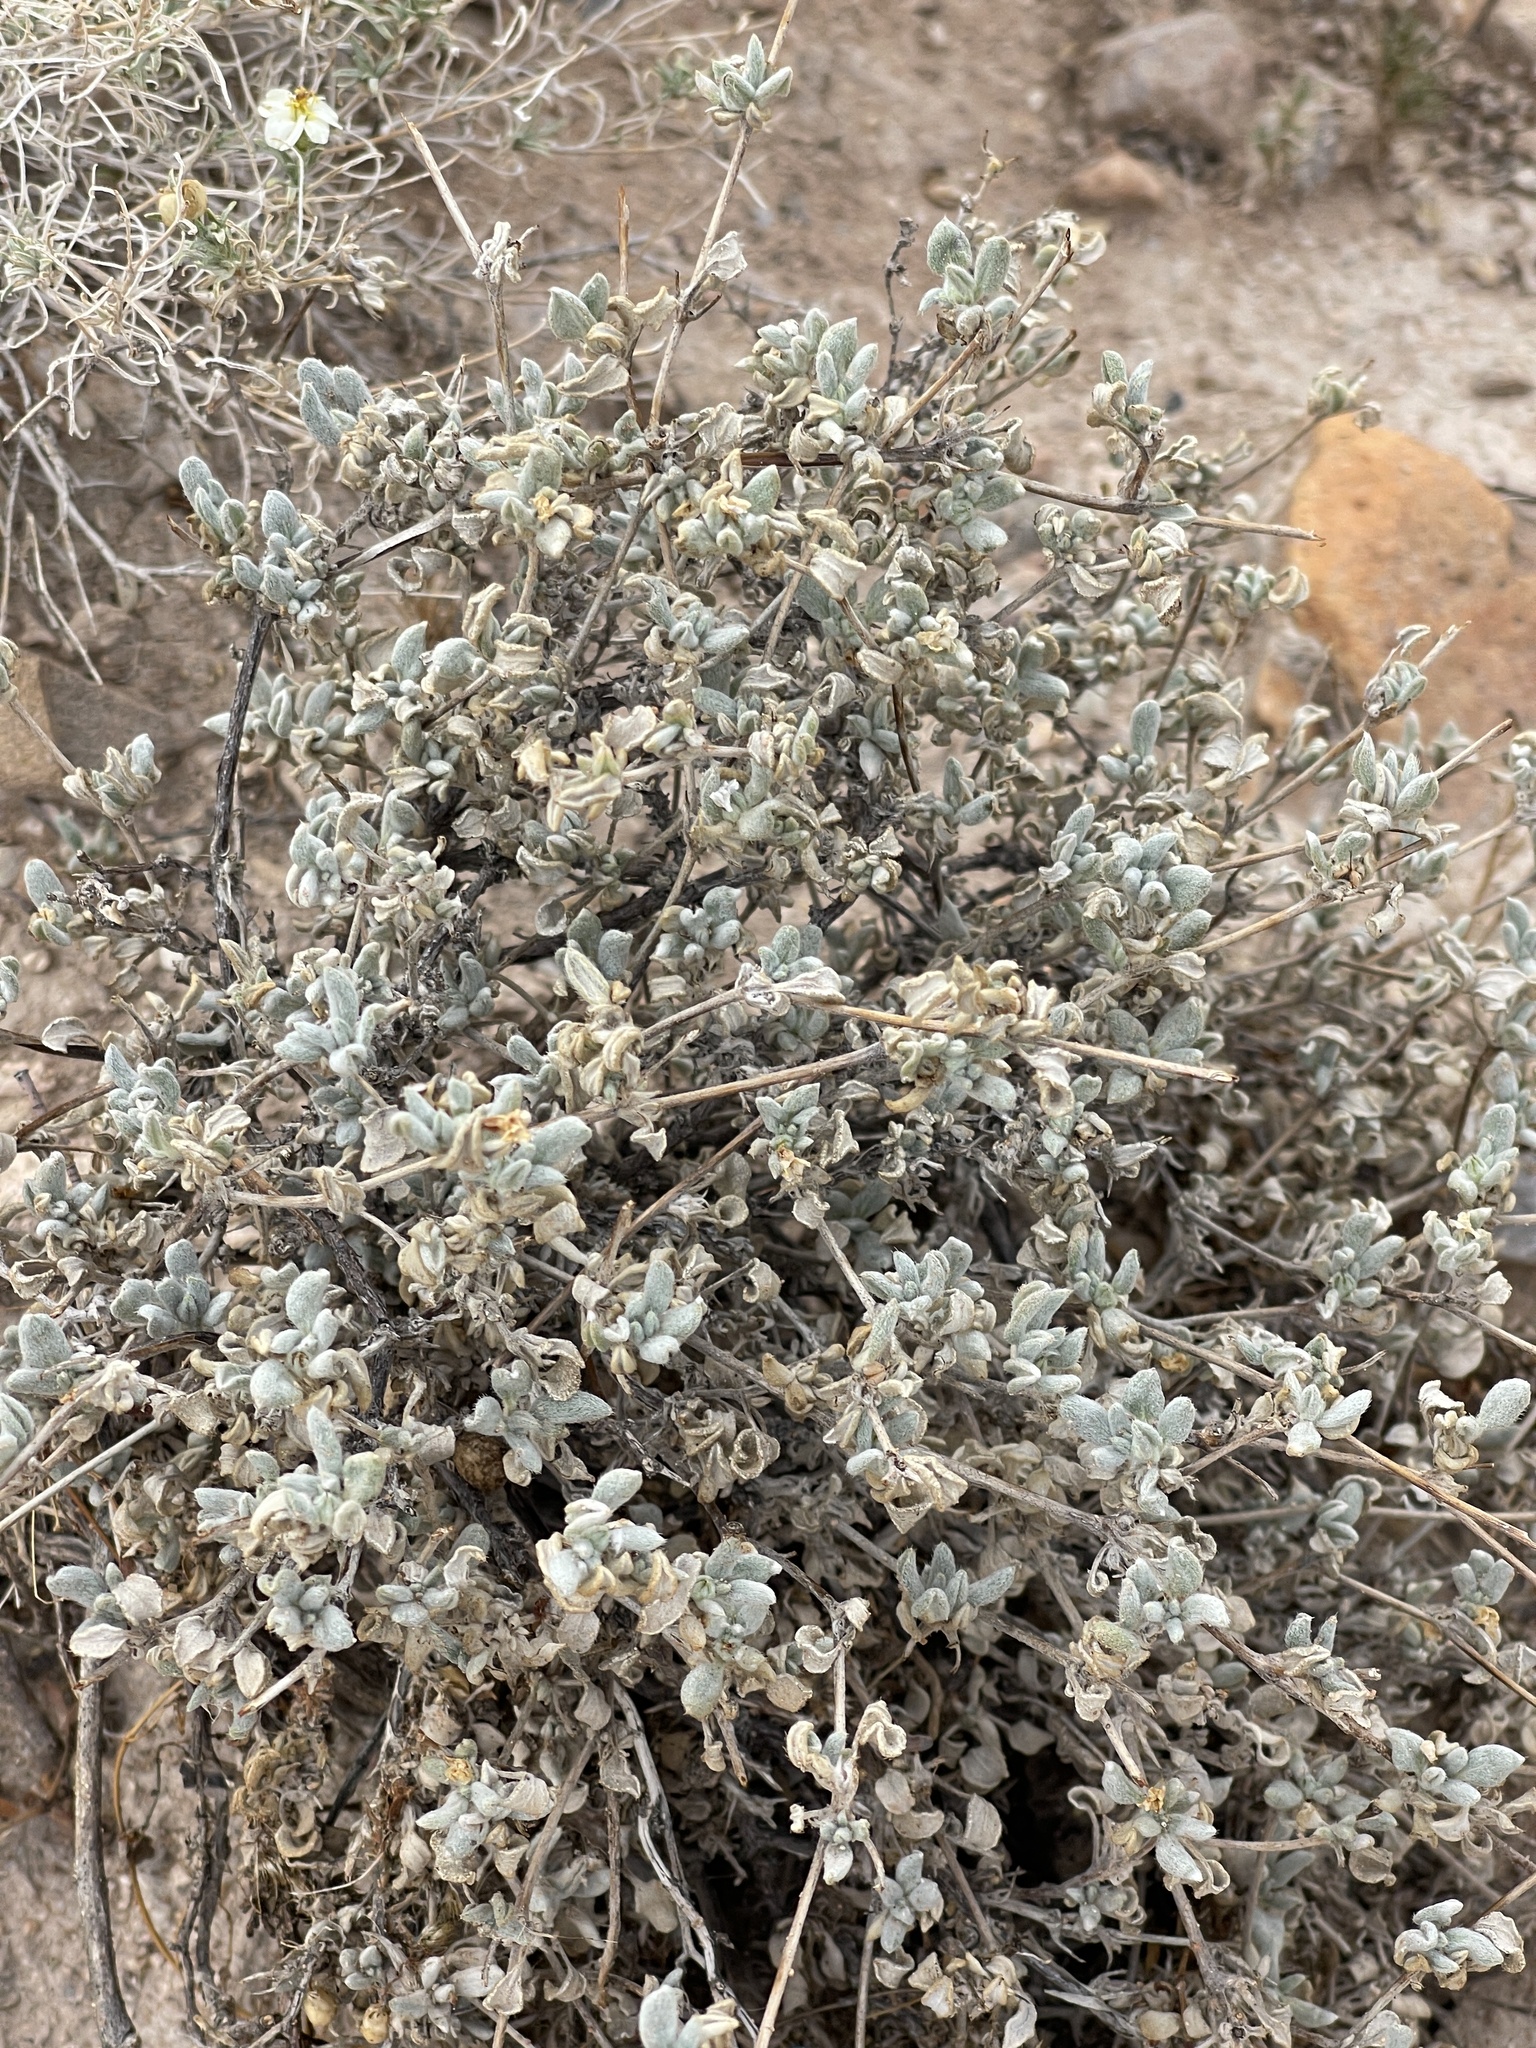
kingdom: Plantae
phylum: Tracheophyta
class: Magnoliopsida
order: Boraginales
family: Ehretiaceae
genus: Tiquilia
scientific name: Tiquilia canescens
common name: Hairy tiquilia
